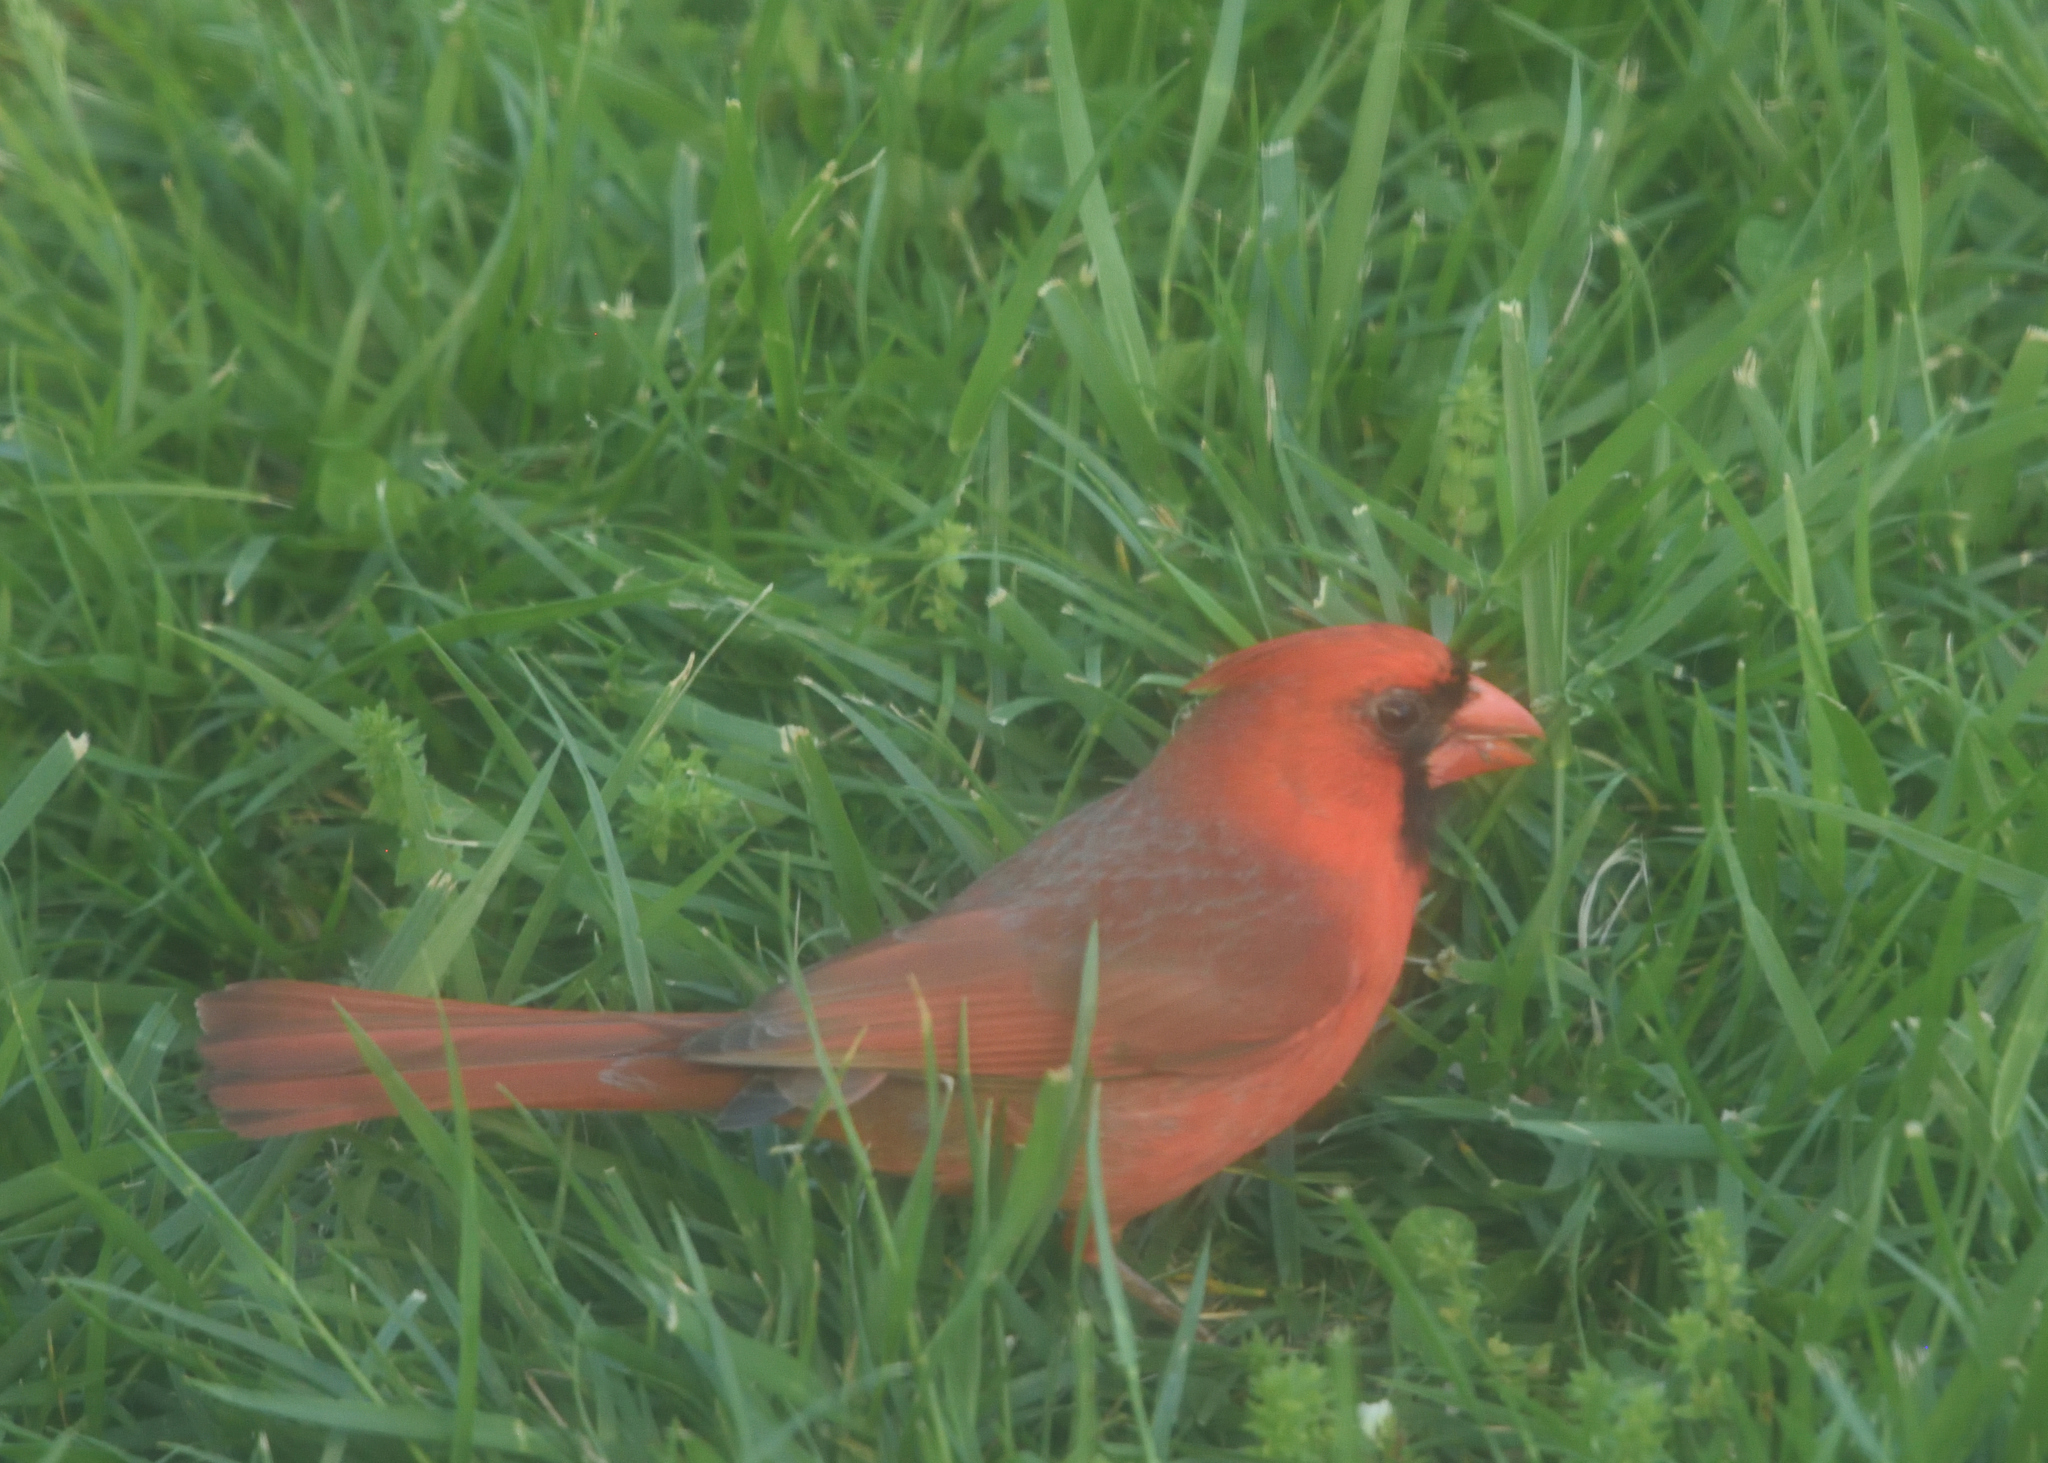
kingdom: Animalia
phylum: Chordata
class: Aves
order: Passeriformes
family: Cardinalidae
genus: Cardinalis
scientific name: Cardinalis cardinalis
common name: Northern cardinal
